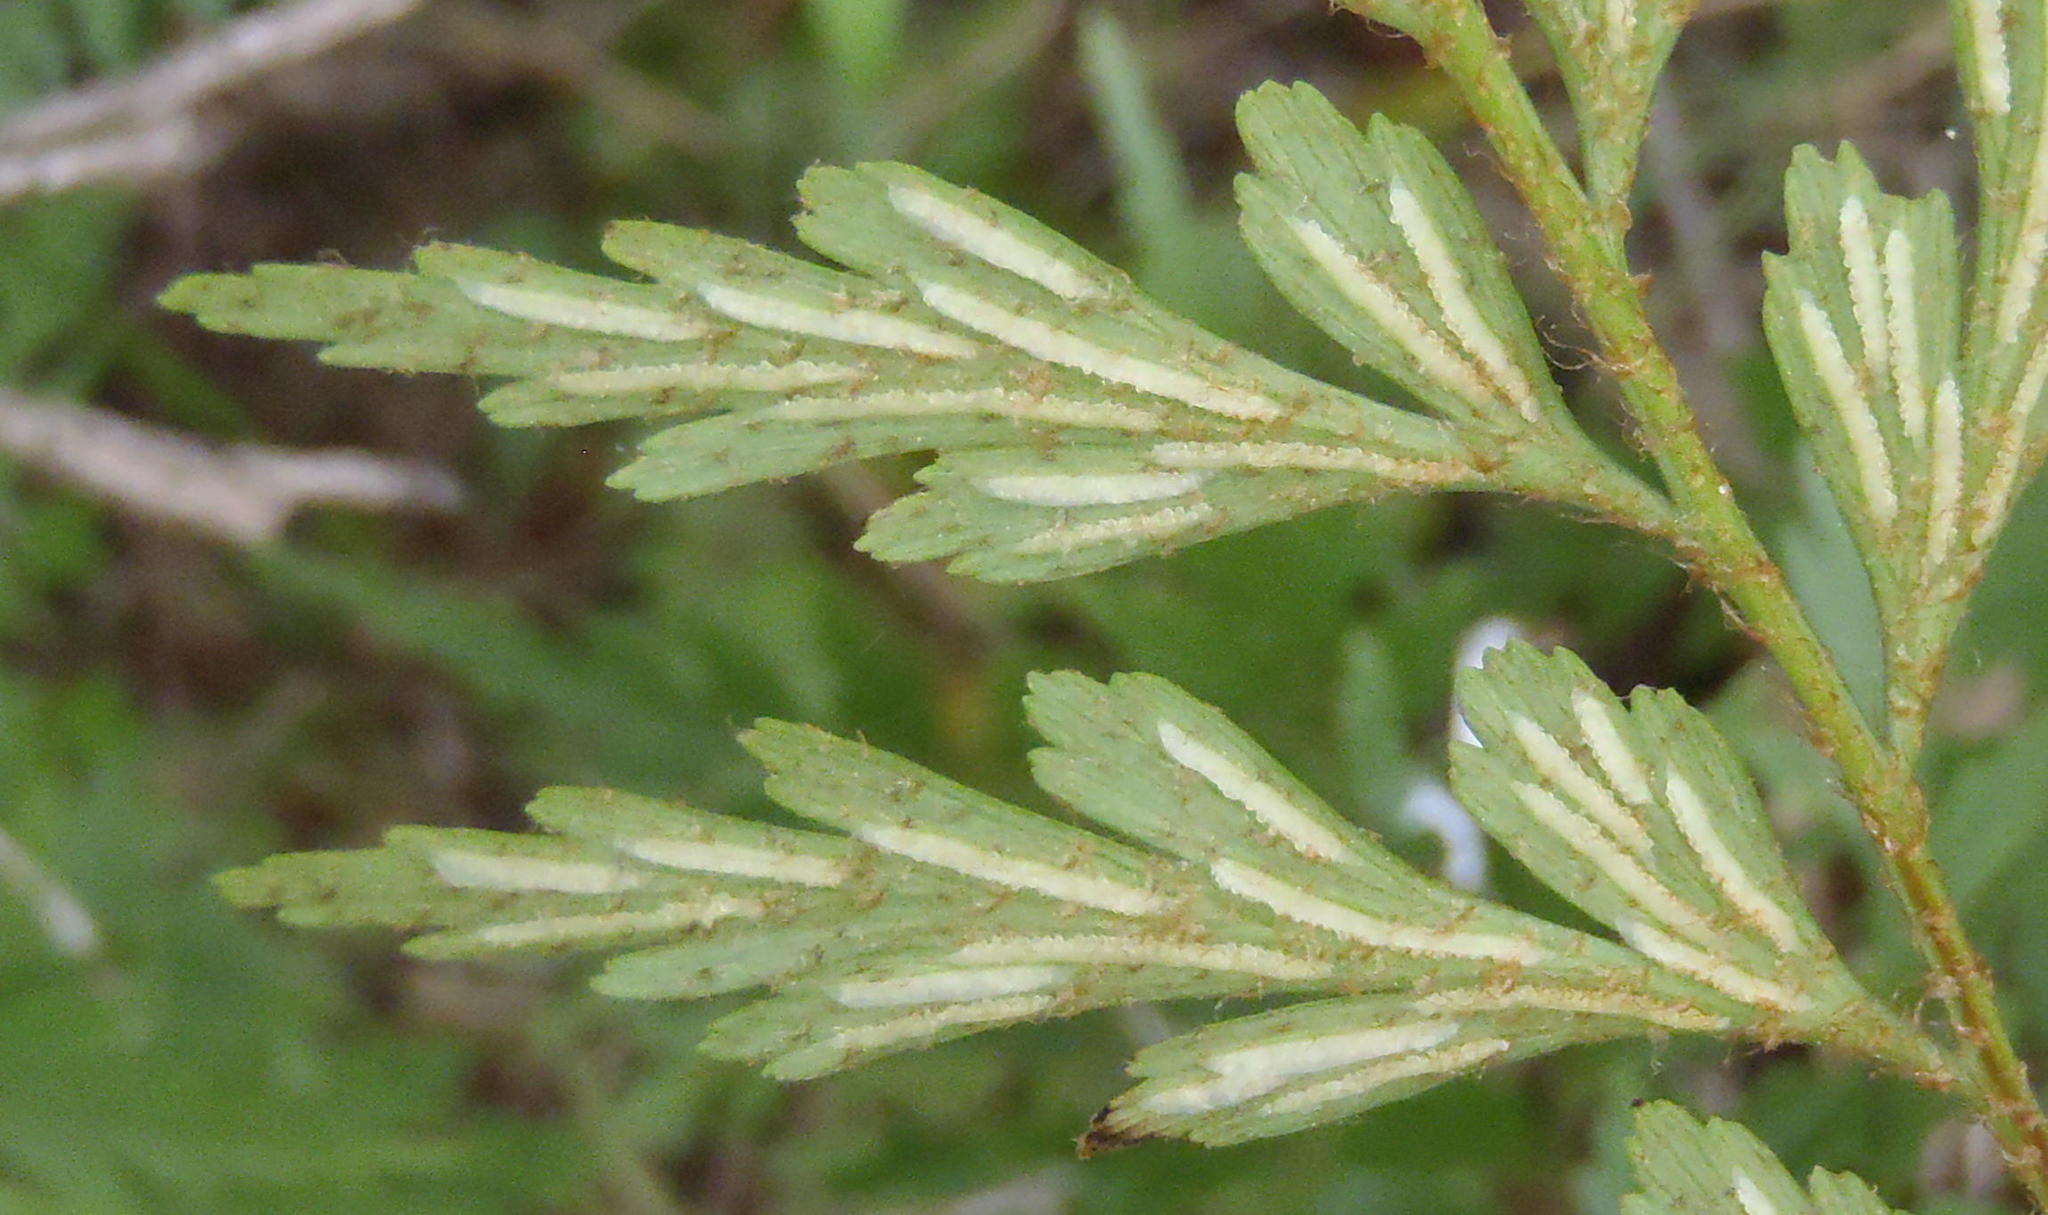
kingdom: Plantae
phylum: Tracheophyta
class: Polypodiopsida
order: Polypodiales
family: Aspleniaceae
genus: Asplenium
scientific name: Asplenium aethiopicum
